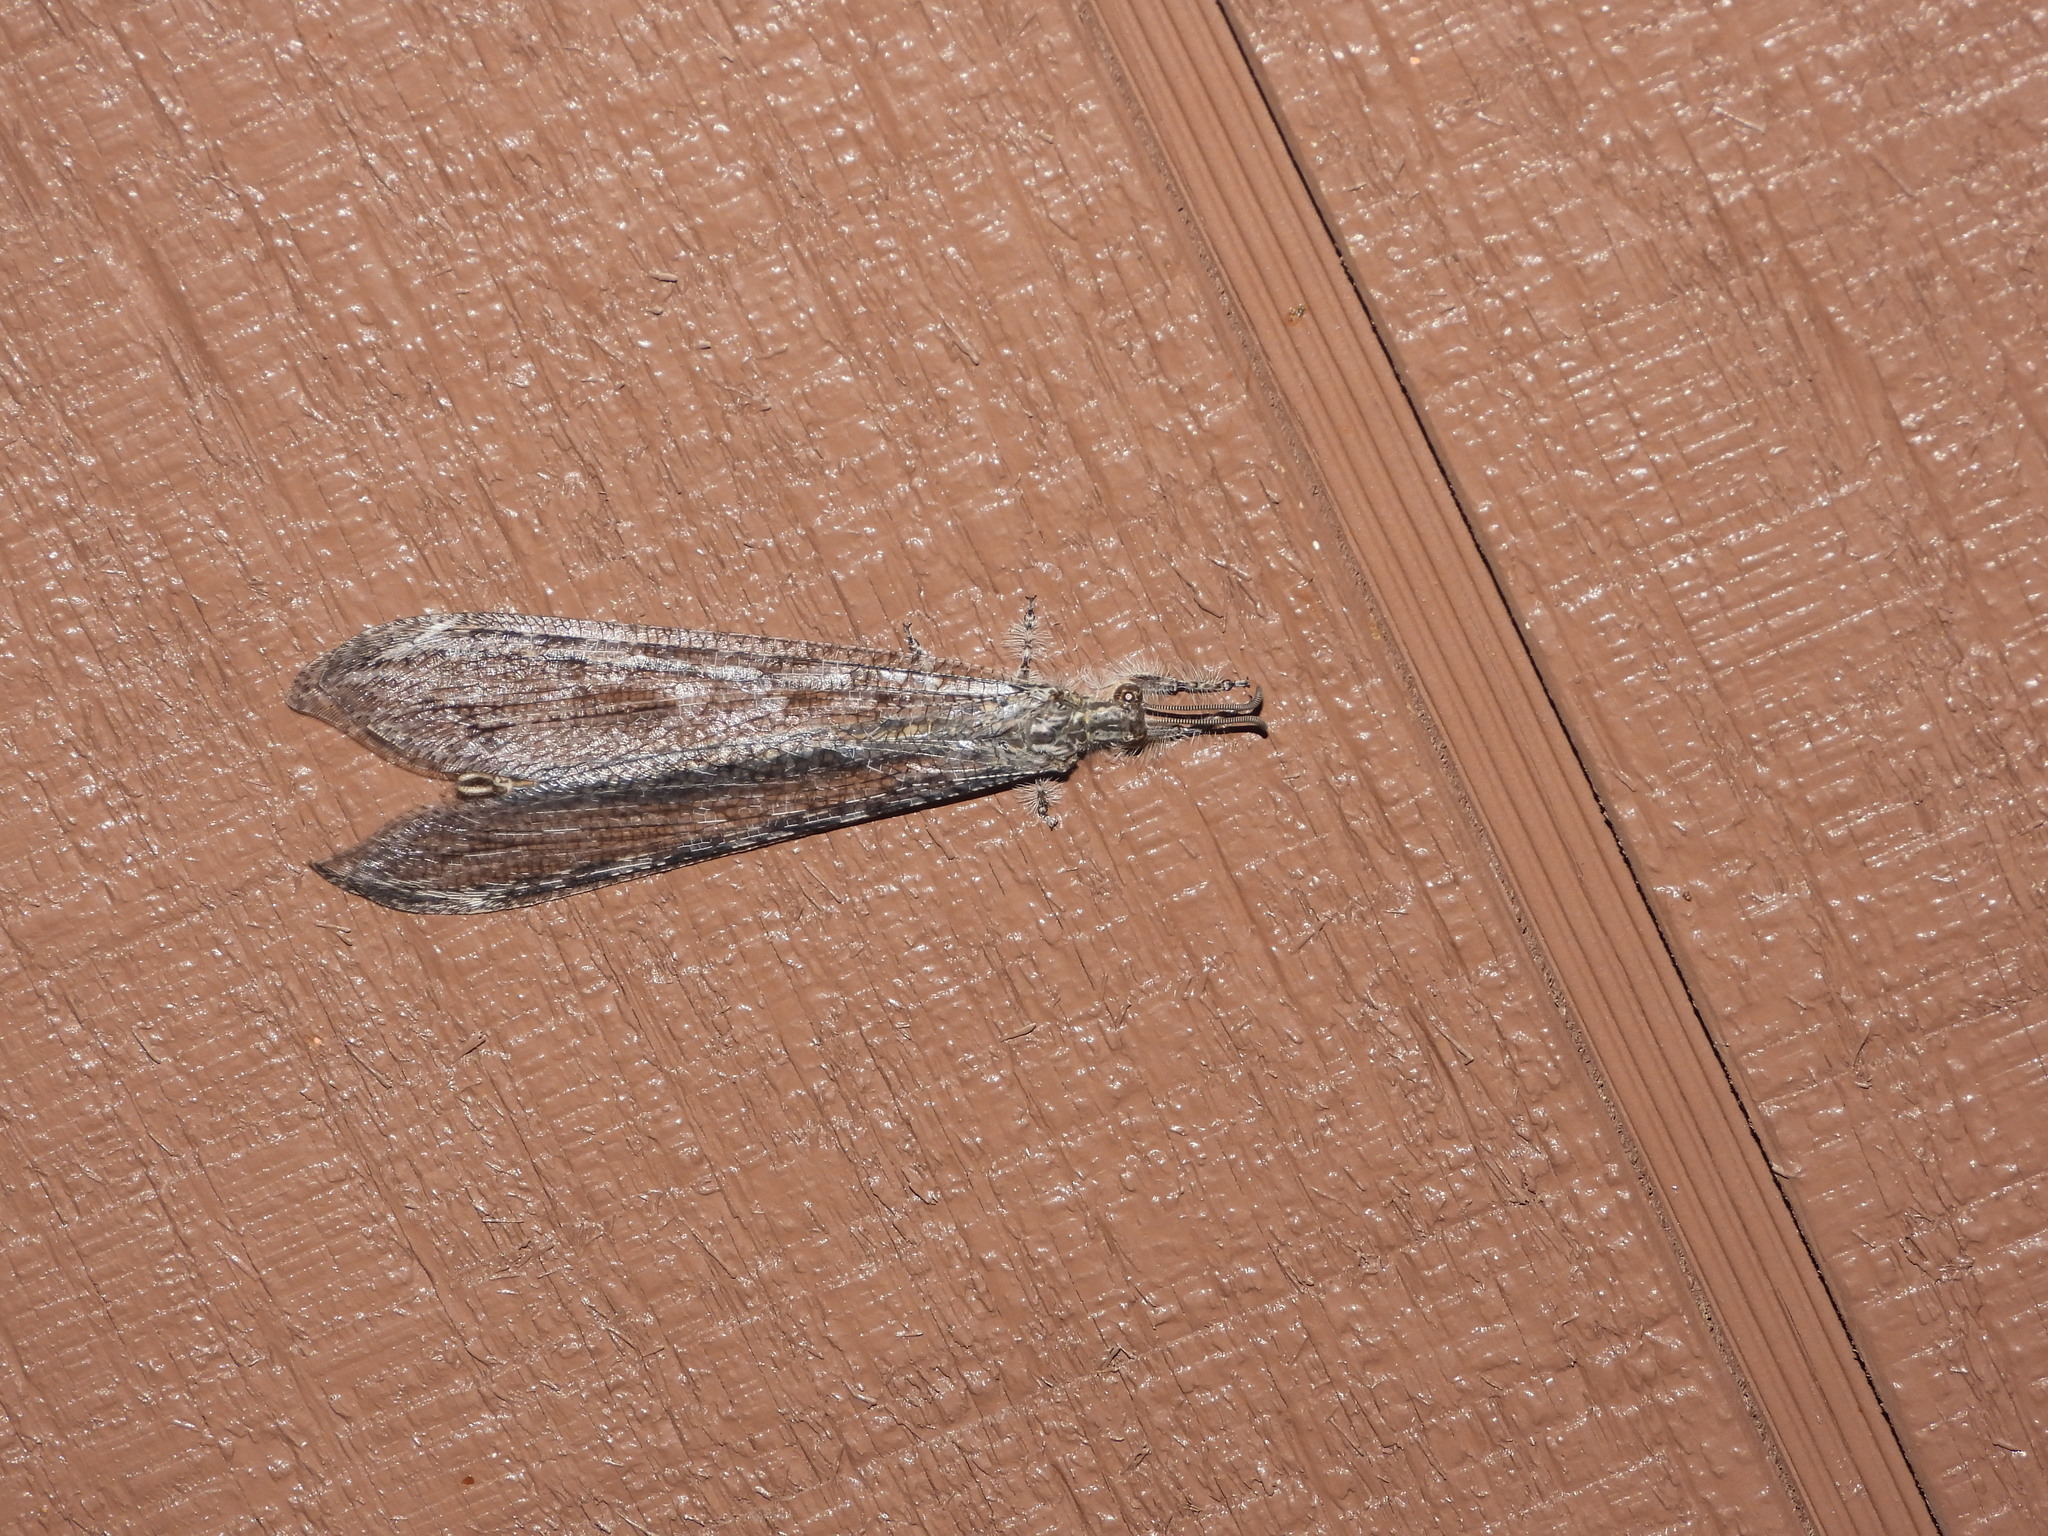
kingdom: Animalia
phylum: Arthropoda
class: Insecta
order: Neuroptera
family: Myrmeleontidae
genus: Vella
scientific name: Vella fallax
